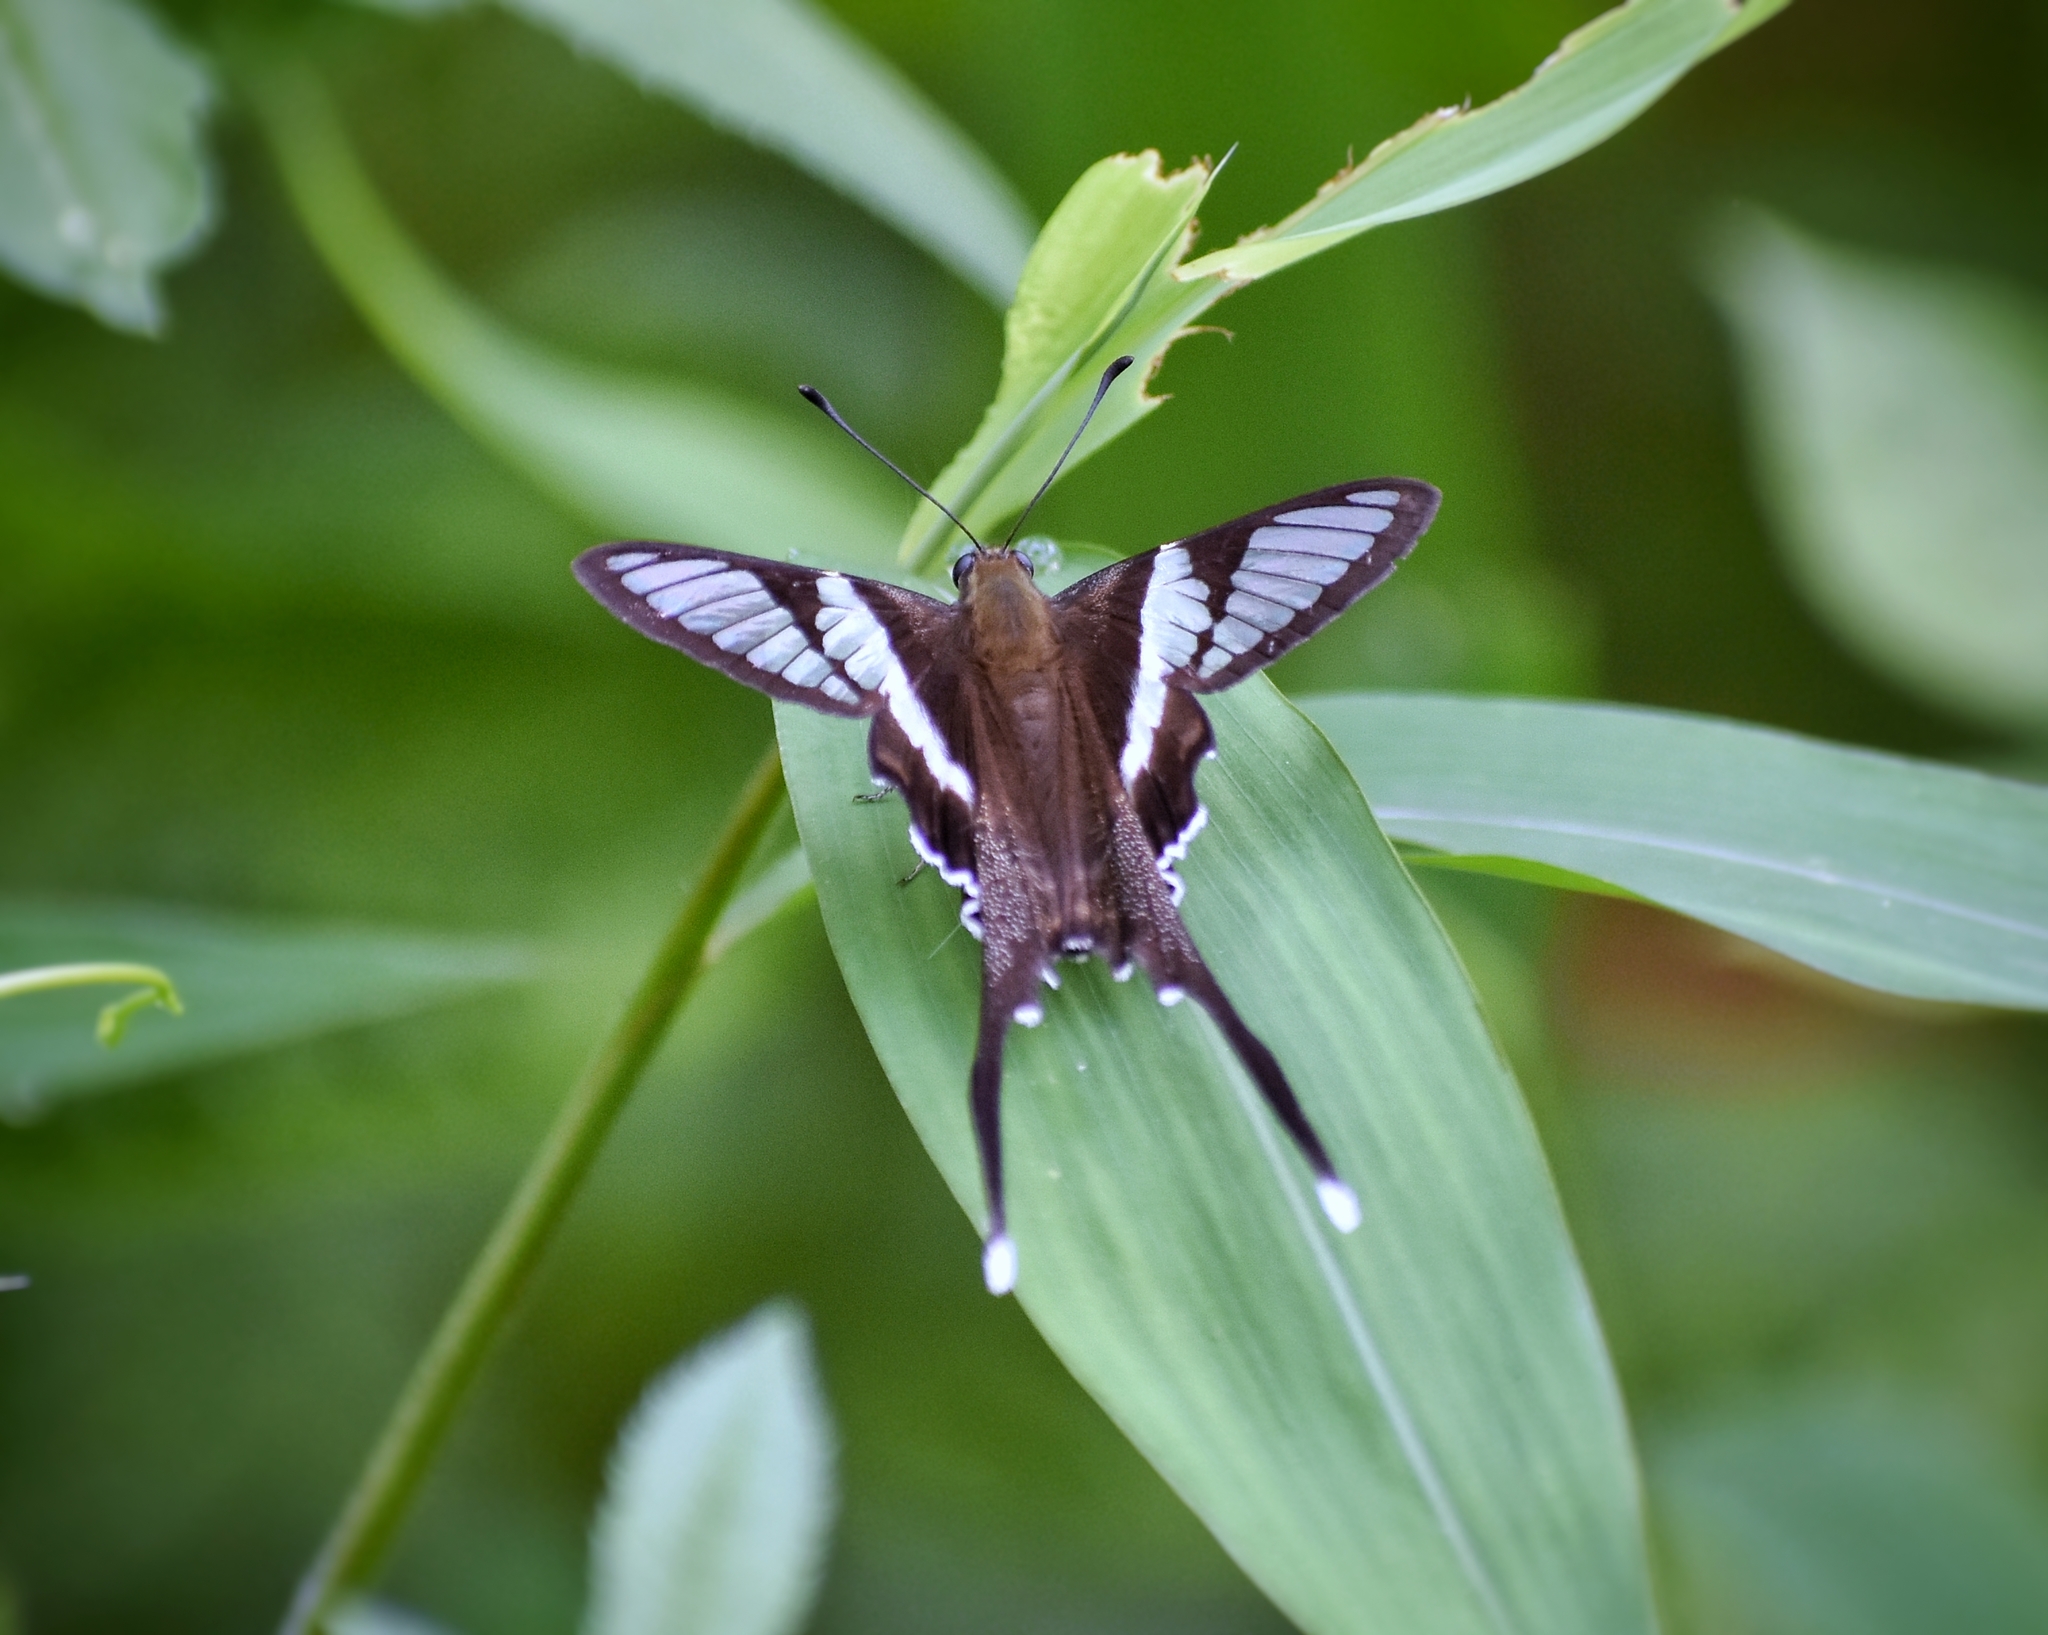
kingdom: Animalia
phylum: Arthropoda
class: Insecta
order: Lepidoptera
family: Papilionidae
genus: Lamproptera
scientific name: Lamproptera curius
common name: White dragontail
